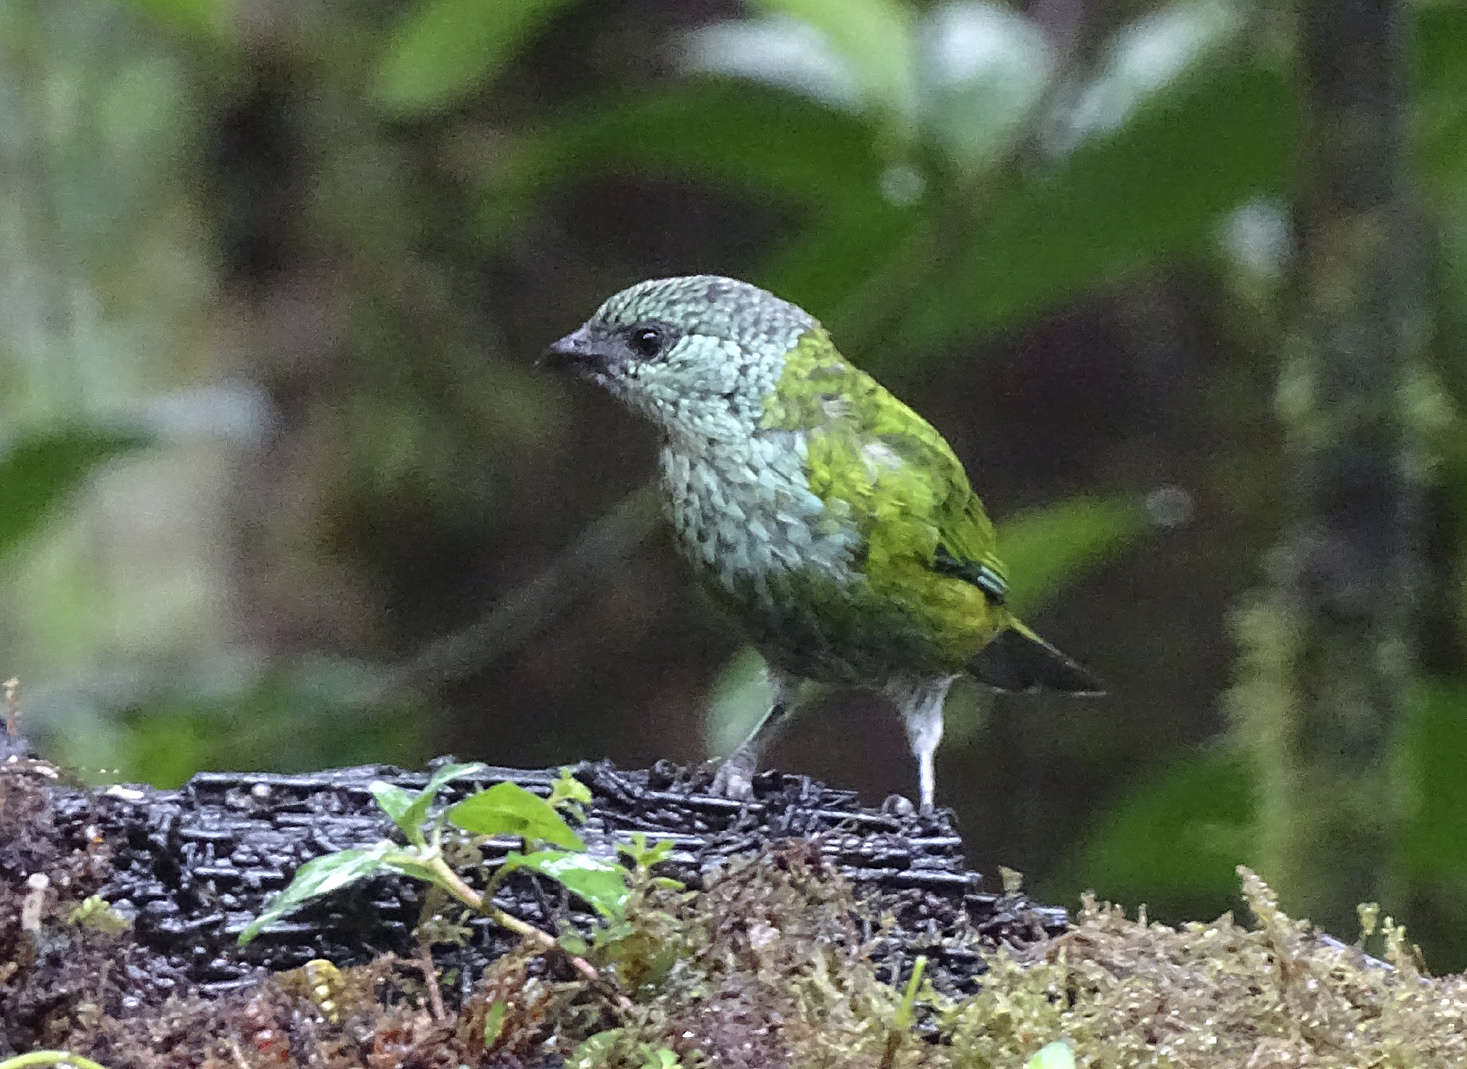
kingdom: Animalia
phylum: Chordata
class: Aves
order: Passeriformes
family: Thraupidae
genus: Stilpnia
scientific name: Stilpnia heinei
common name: Black-capped tanager
